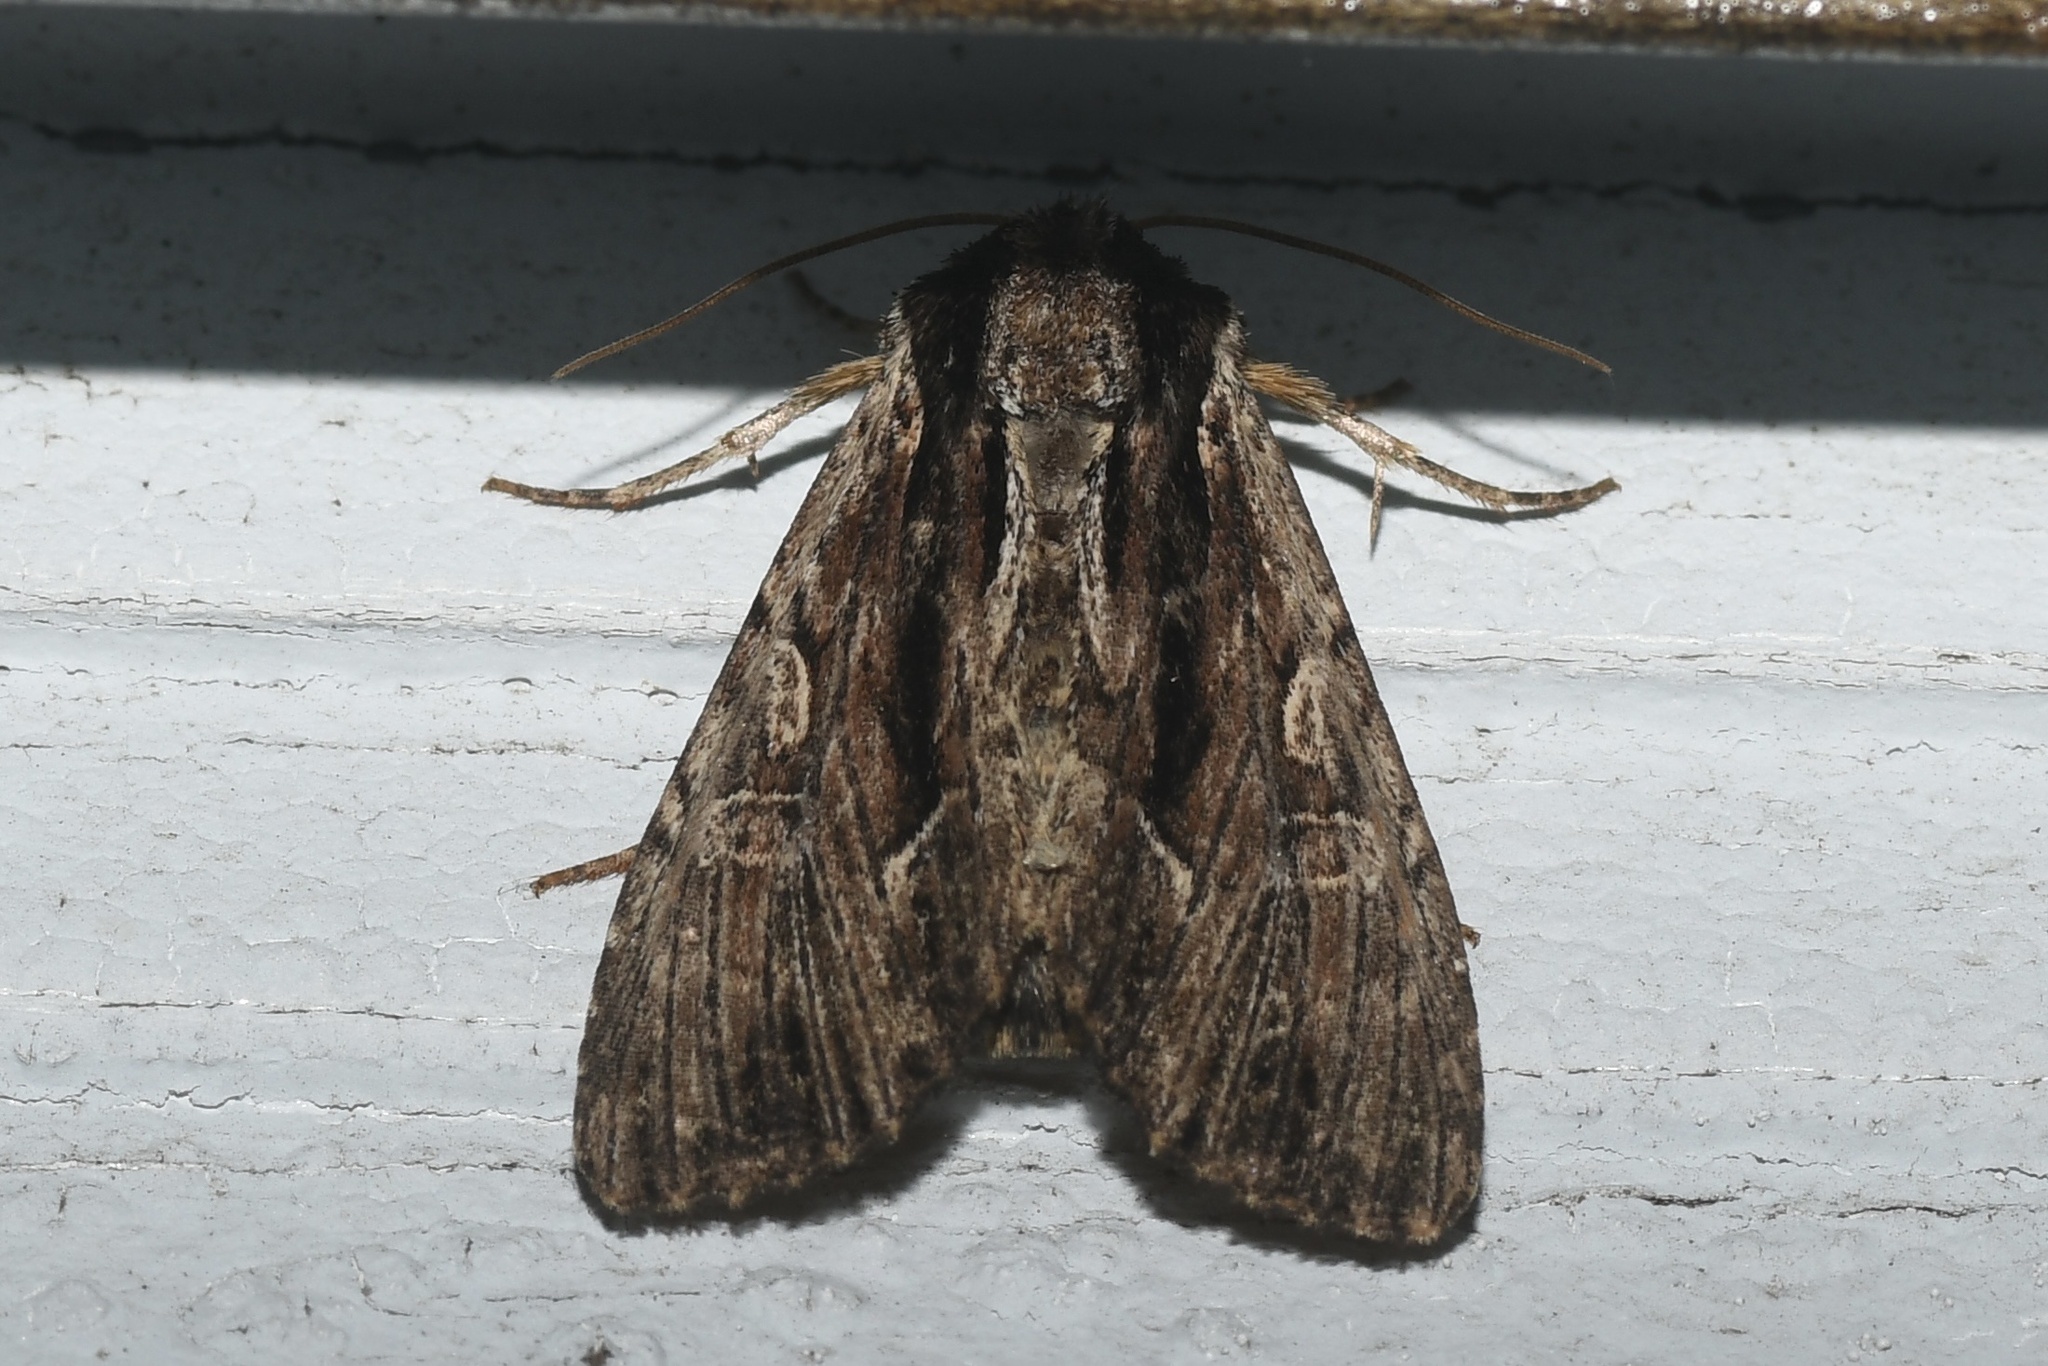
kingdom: Animalia
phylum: Arthropoda
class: Insecta
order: Lepidoptera
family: Noctuidae
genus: Apamea
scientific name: Apamea nigrior
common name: Black-dashed apamea moth
